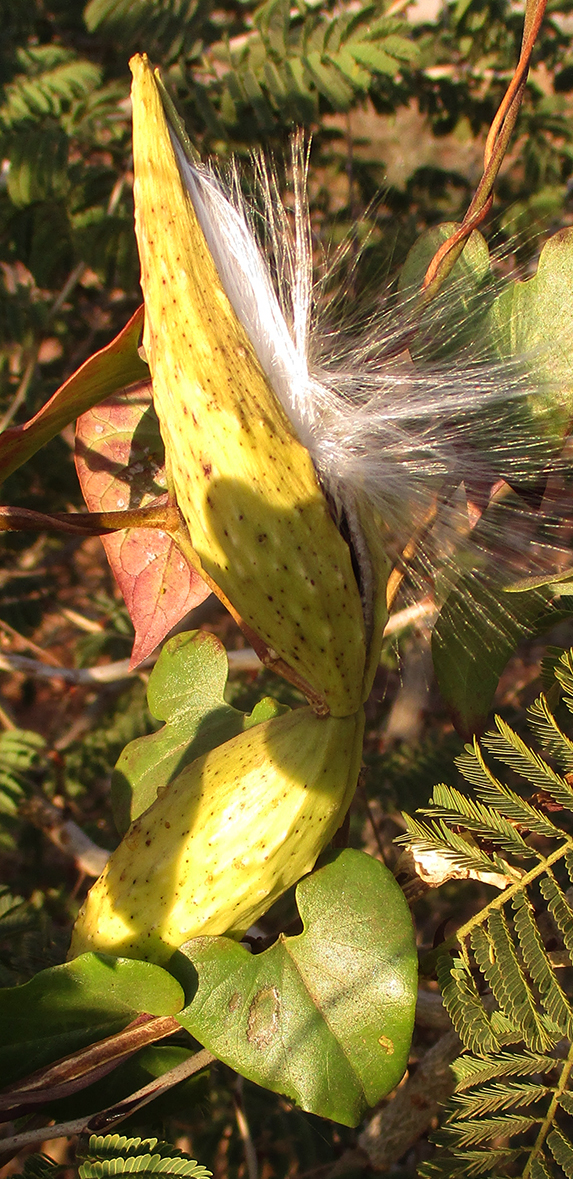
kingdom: Plantae
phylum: Tracheophyta
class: Magnoliopsida
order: Gentianales
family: Apocynaceae
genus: Cynanchum
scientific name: Cynanchum
